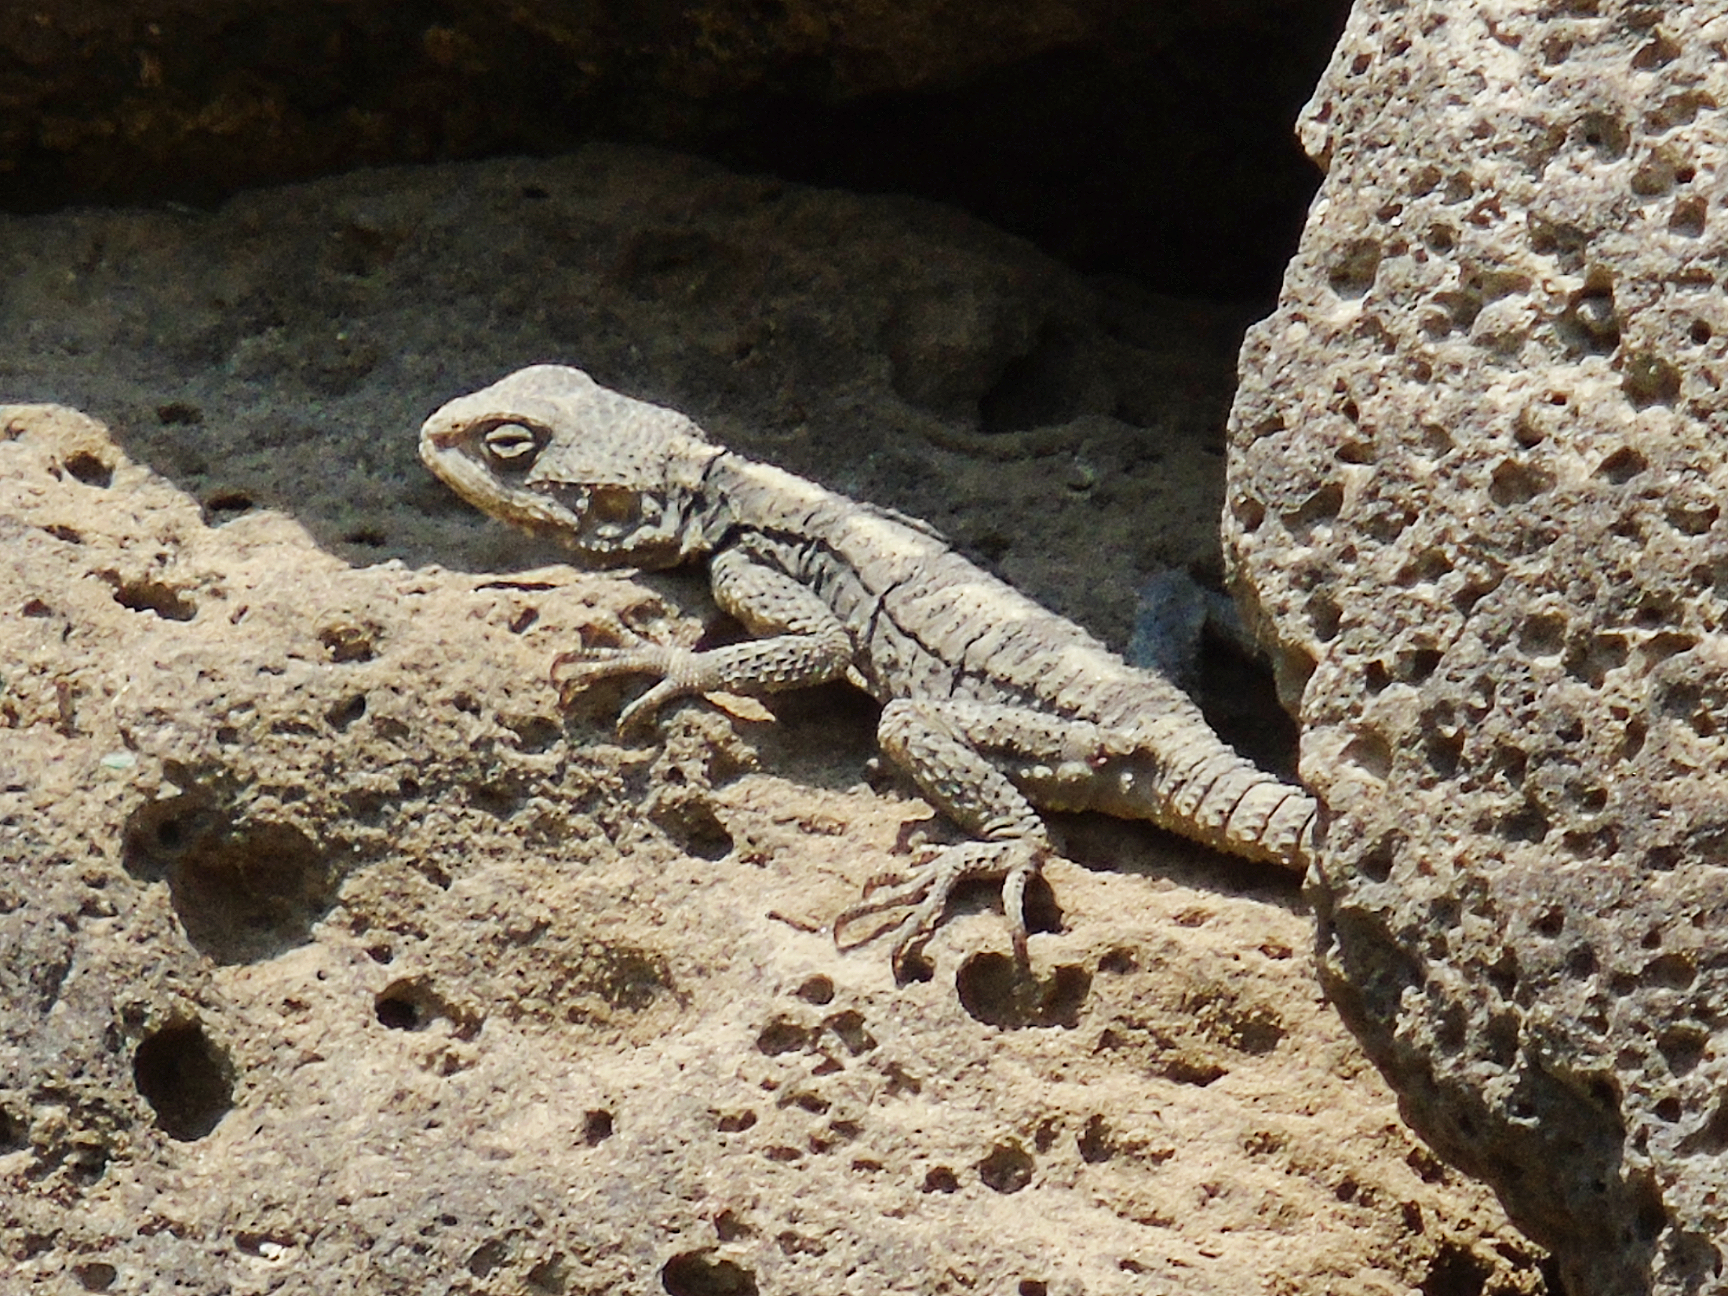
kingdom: Animalia
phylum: Chordata
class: Squamata
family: Agamidae
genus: Stellagama
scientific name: Stellagama stellio
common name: Starred agama
